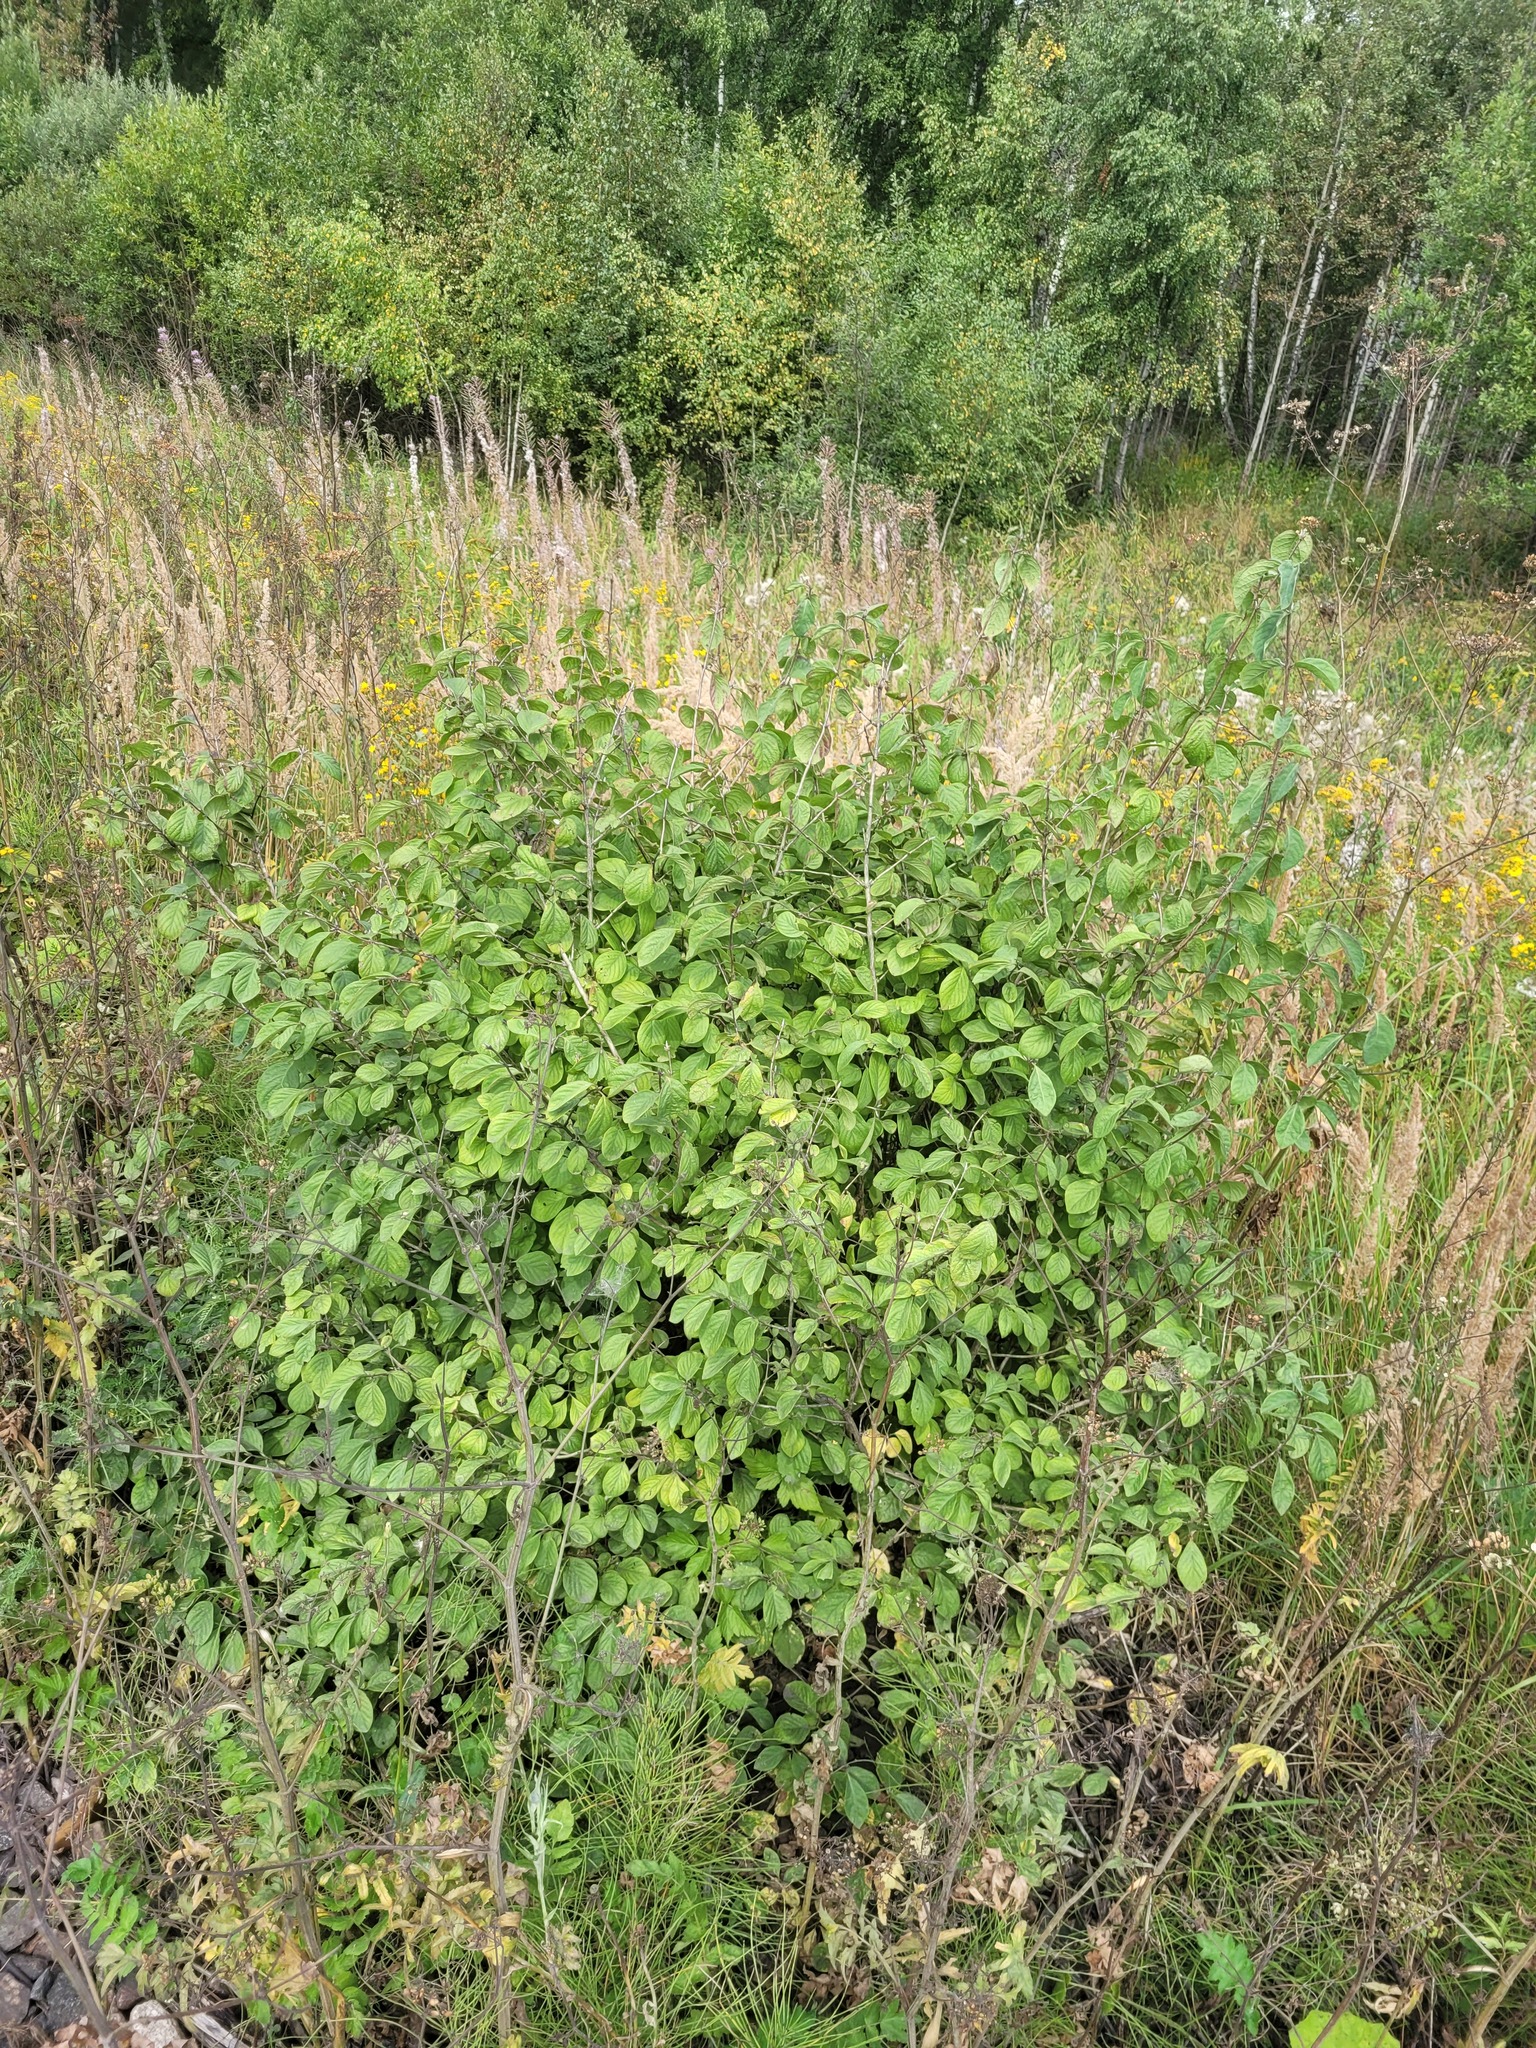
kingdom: Plantae
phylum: Tracheophyta
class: Magnoliopsida
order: Dipsacales
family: Caprifoliaceae
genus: Lonicera
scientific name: Lonicera xylosteum
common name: Fly honeysuckle
